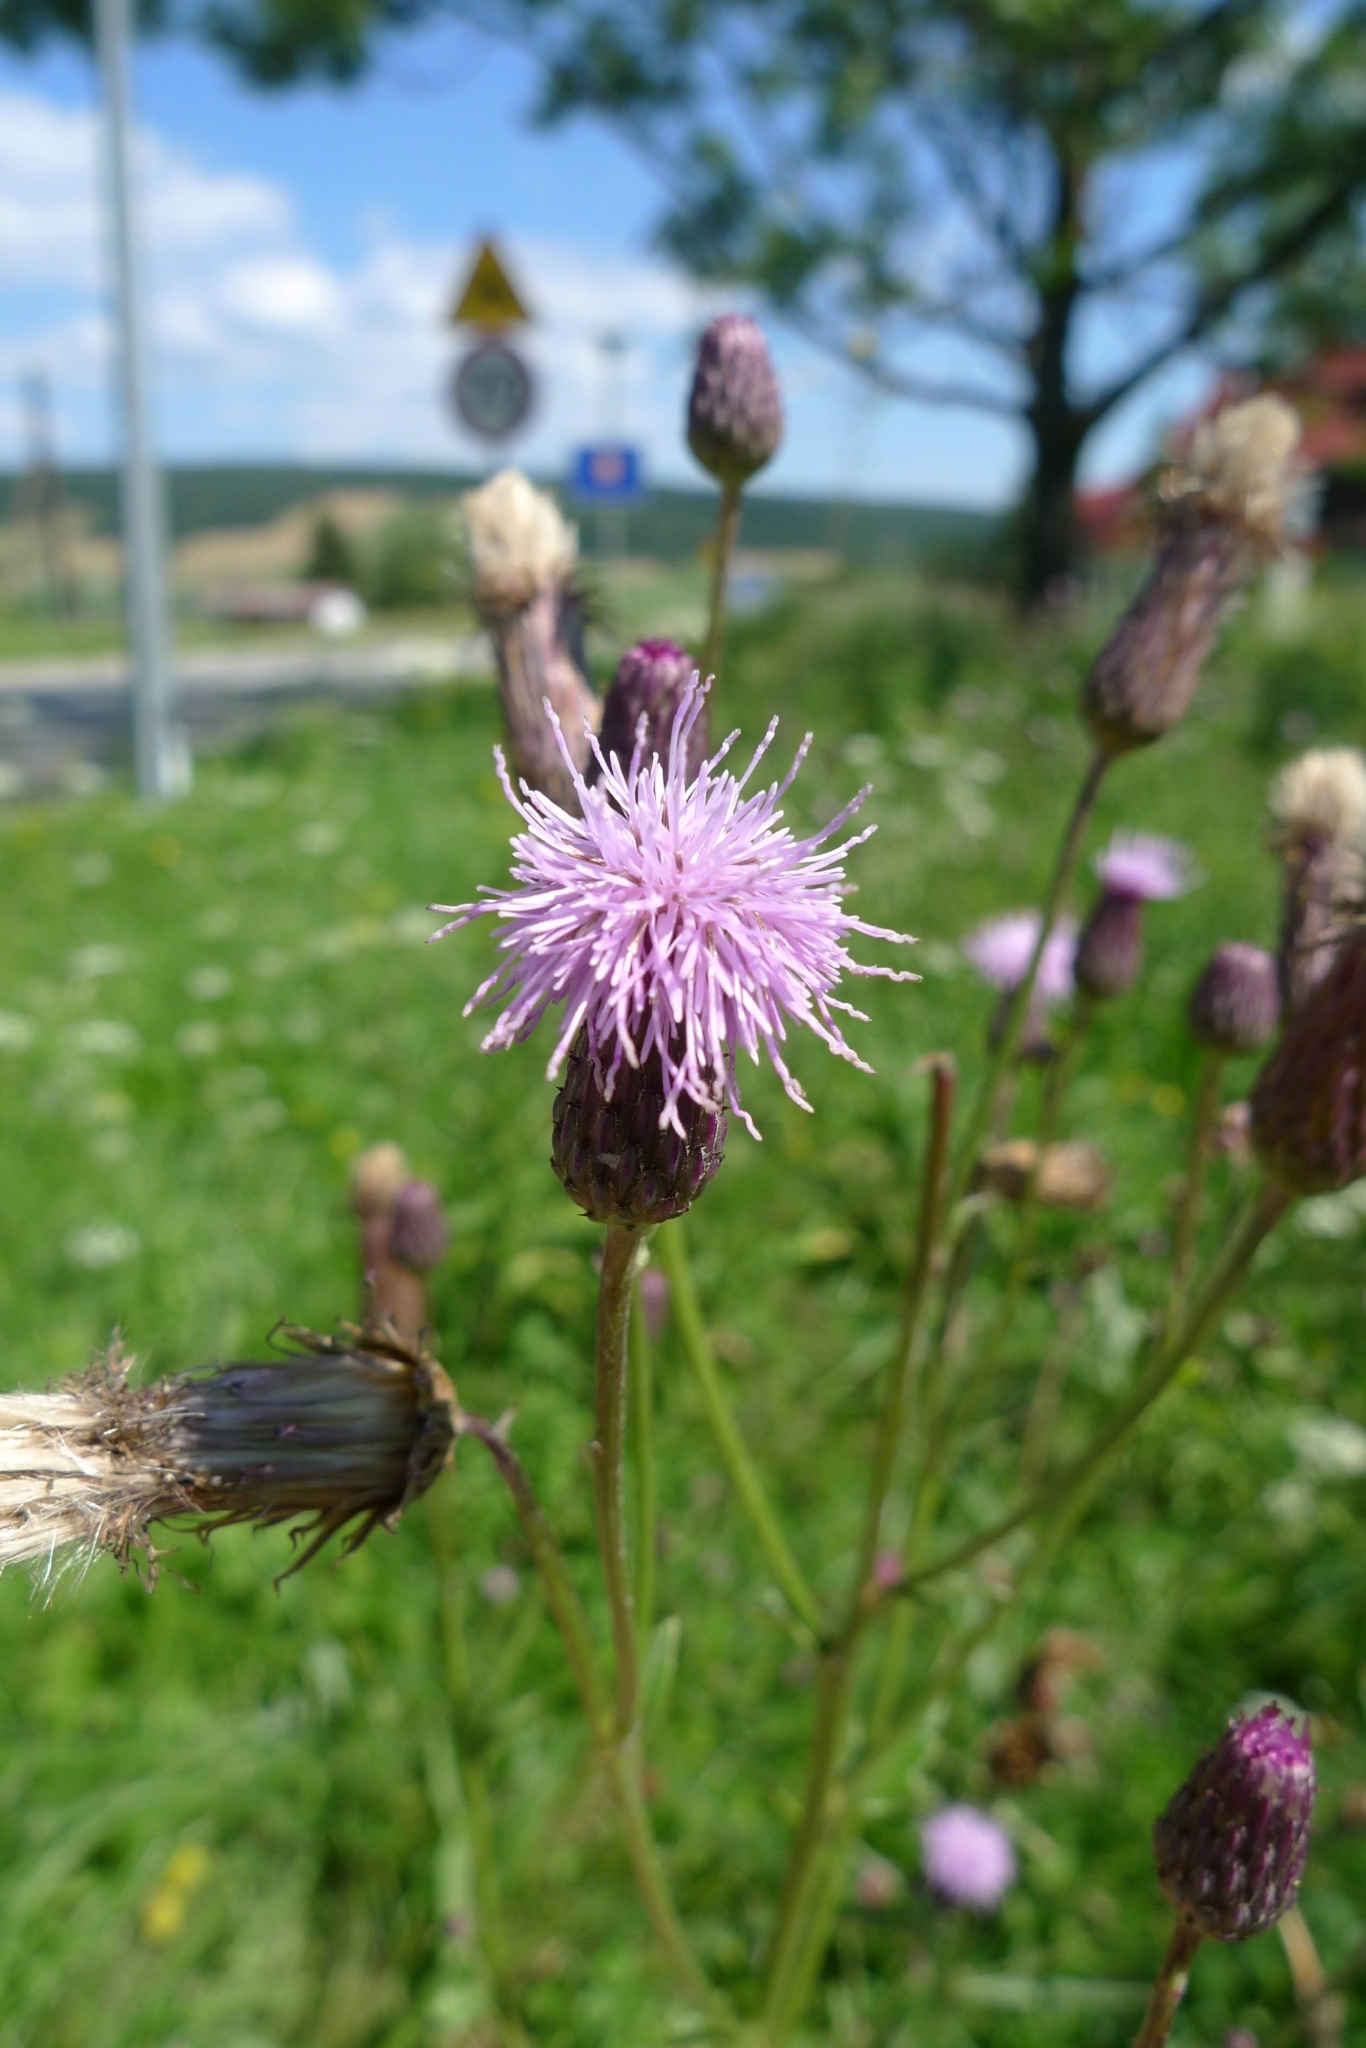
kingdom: Plantae
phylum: Tracheophyta
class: Magnoliopsida
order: Asterales
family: Asteraceae
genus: Cirsium
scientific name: Cirsium arvense
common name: Creeping thistle
